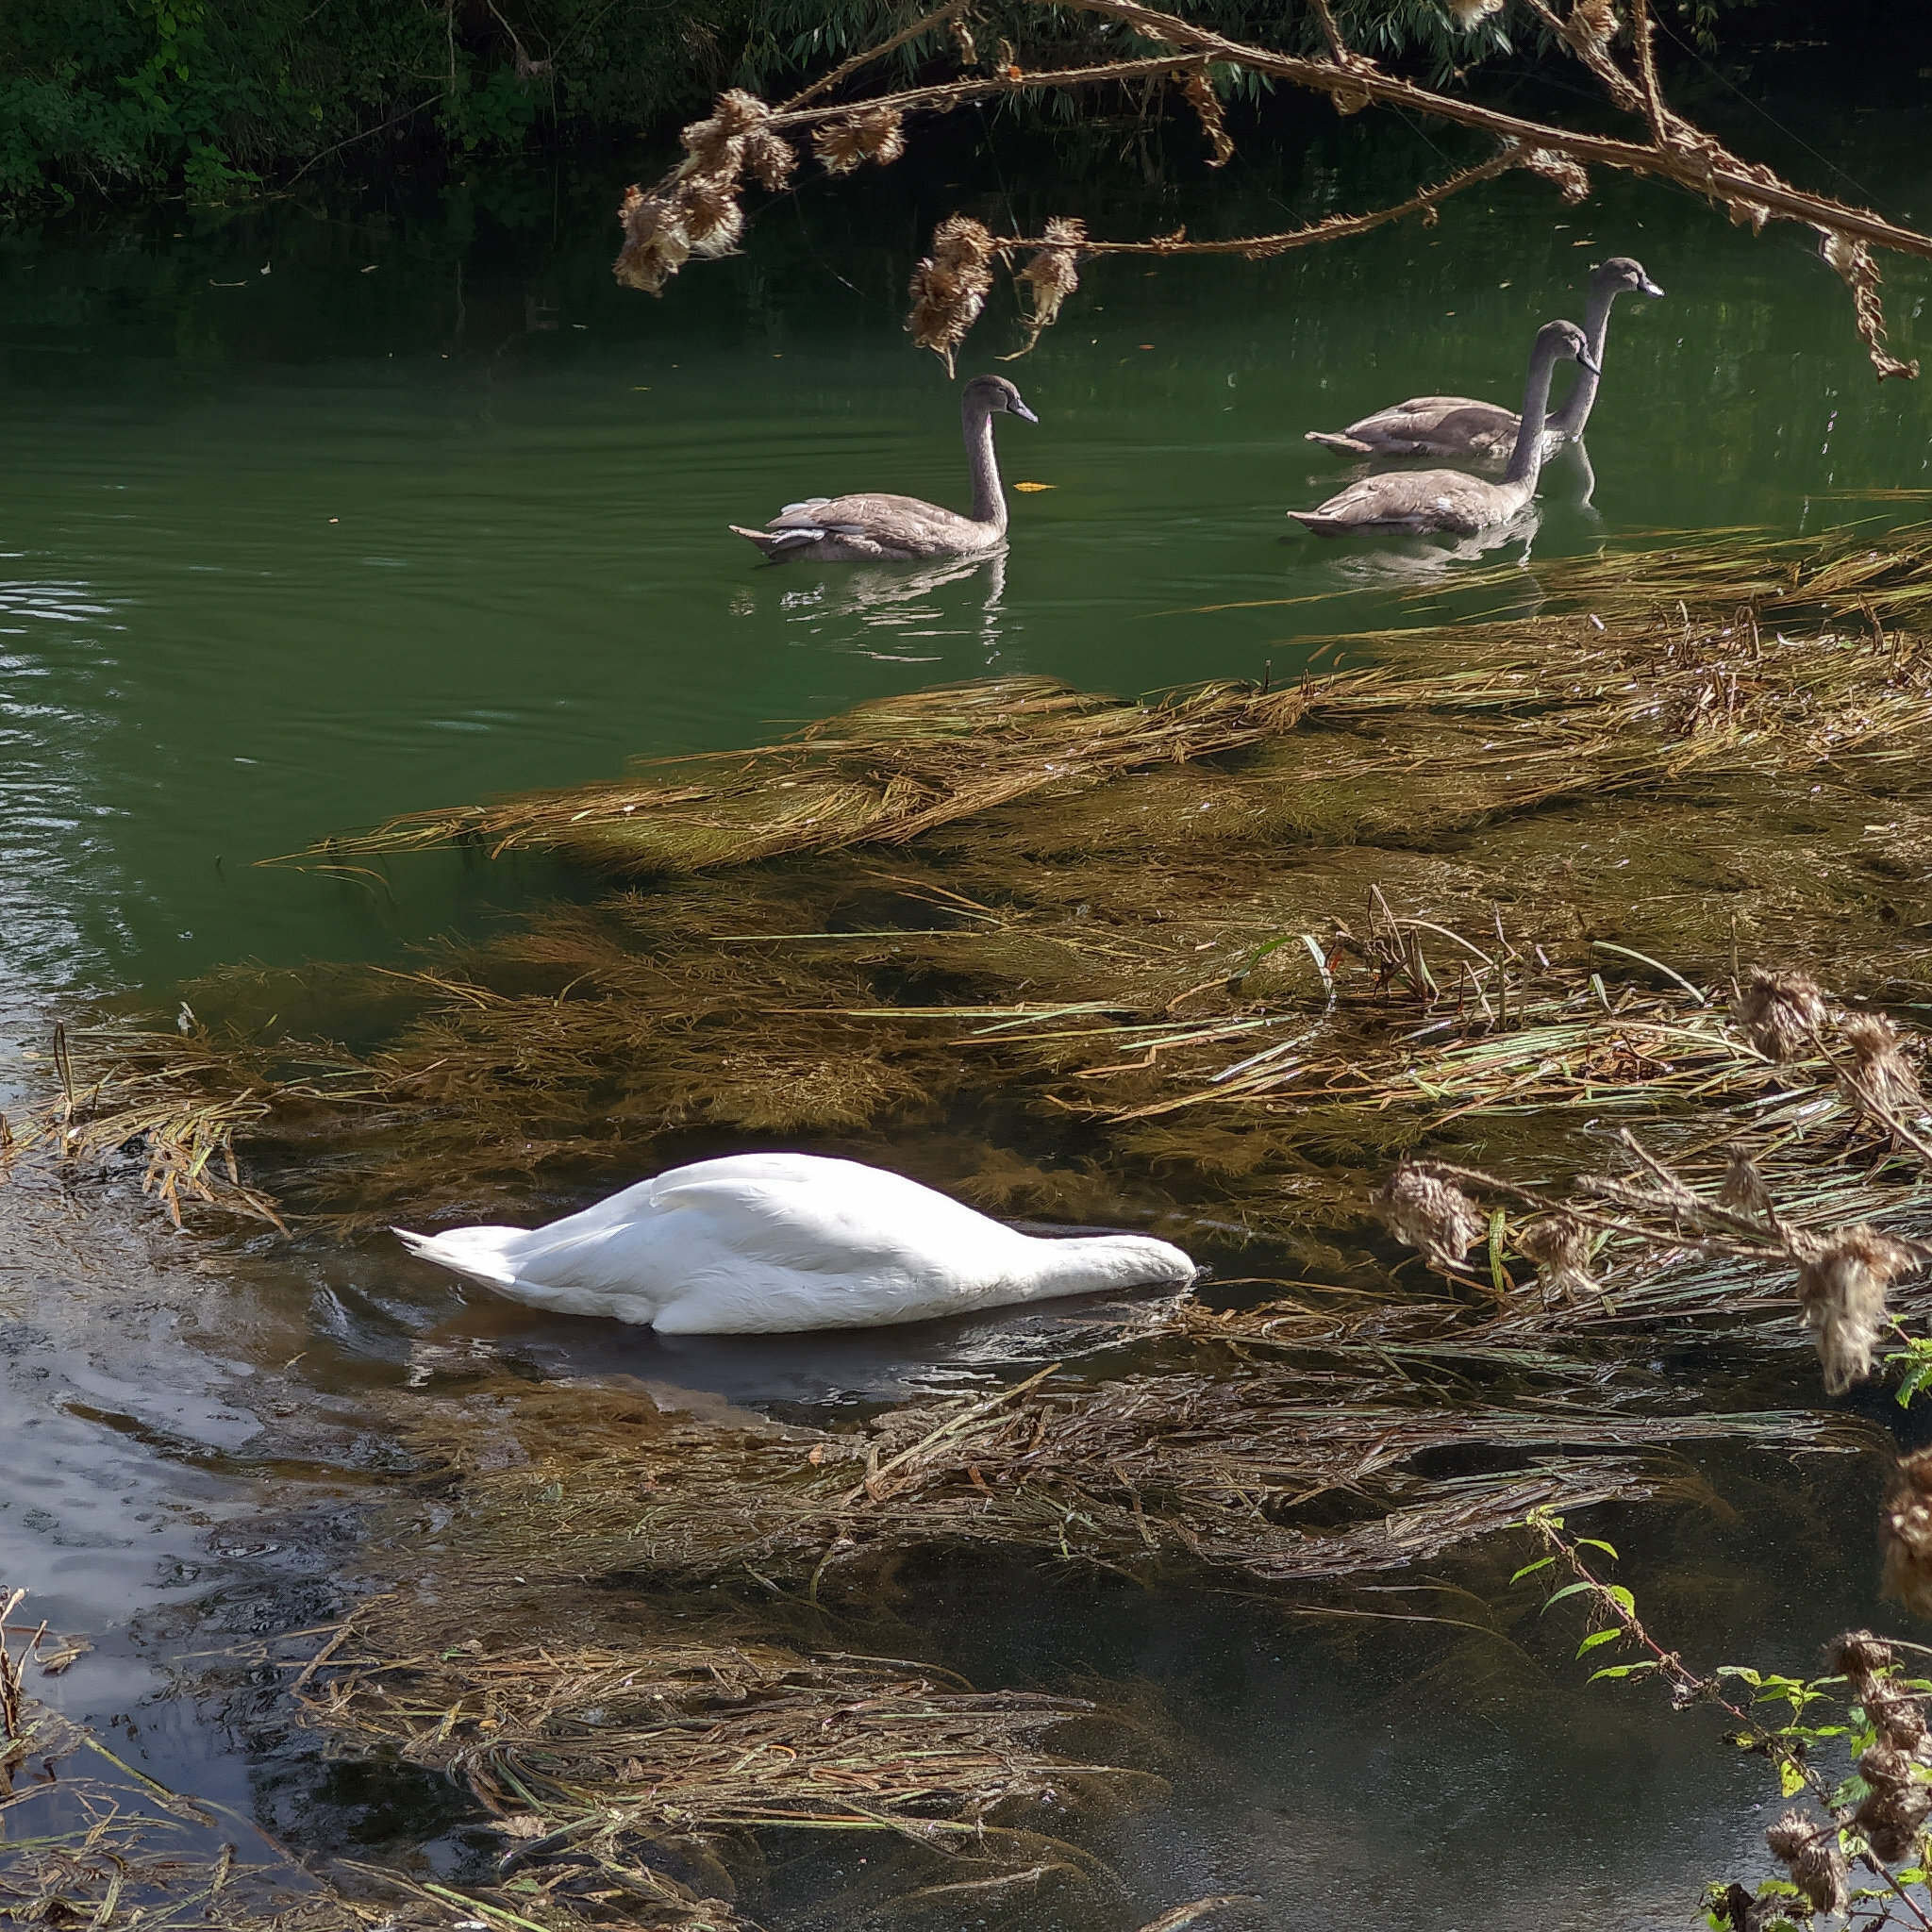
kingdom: Animalia
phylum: Chordata
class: Aves
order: Anseriformes
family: Anatidae
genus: Cygnus
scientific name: Cygnus olor
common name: Mute swan
